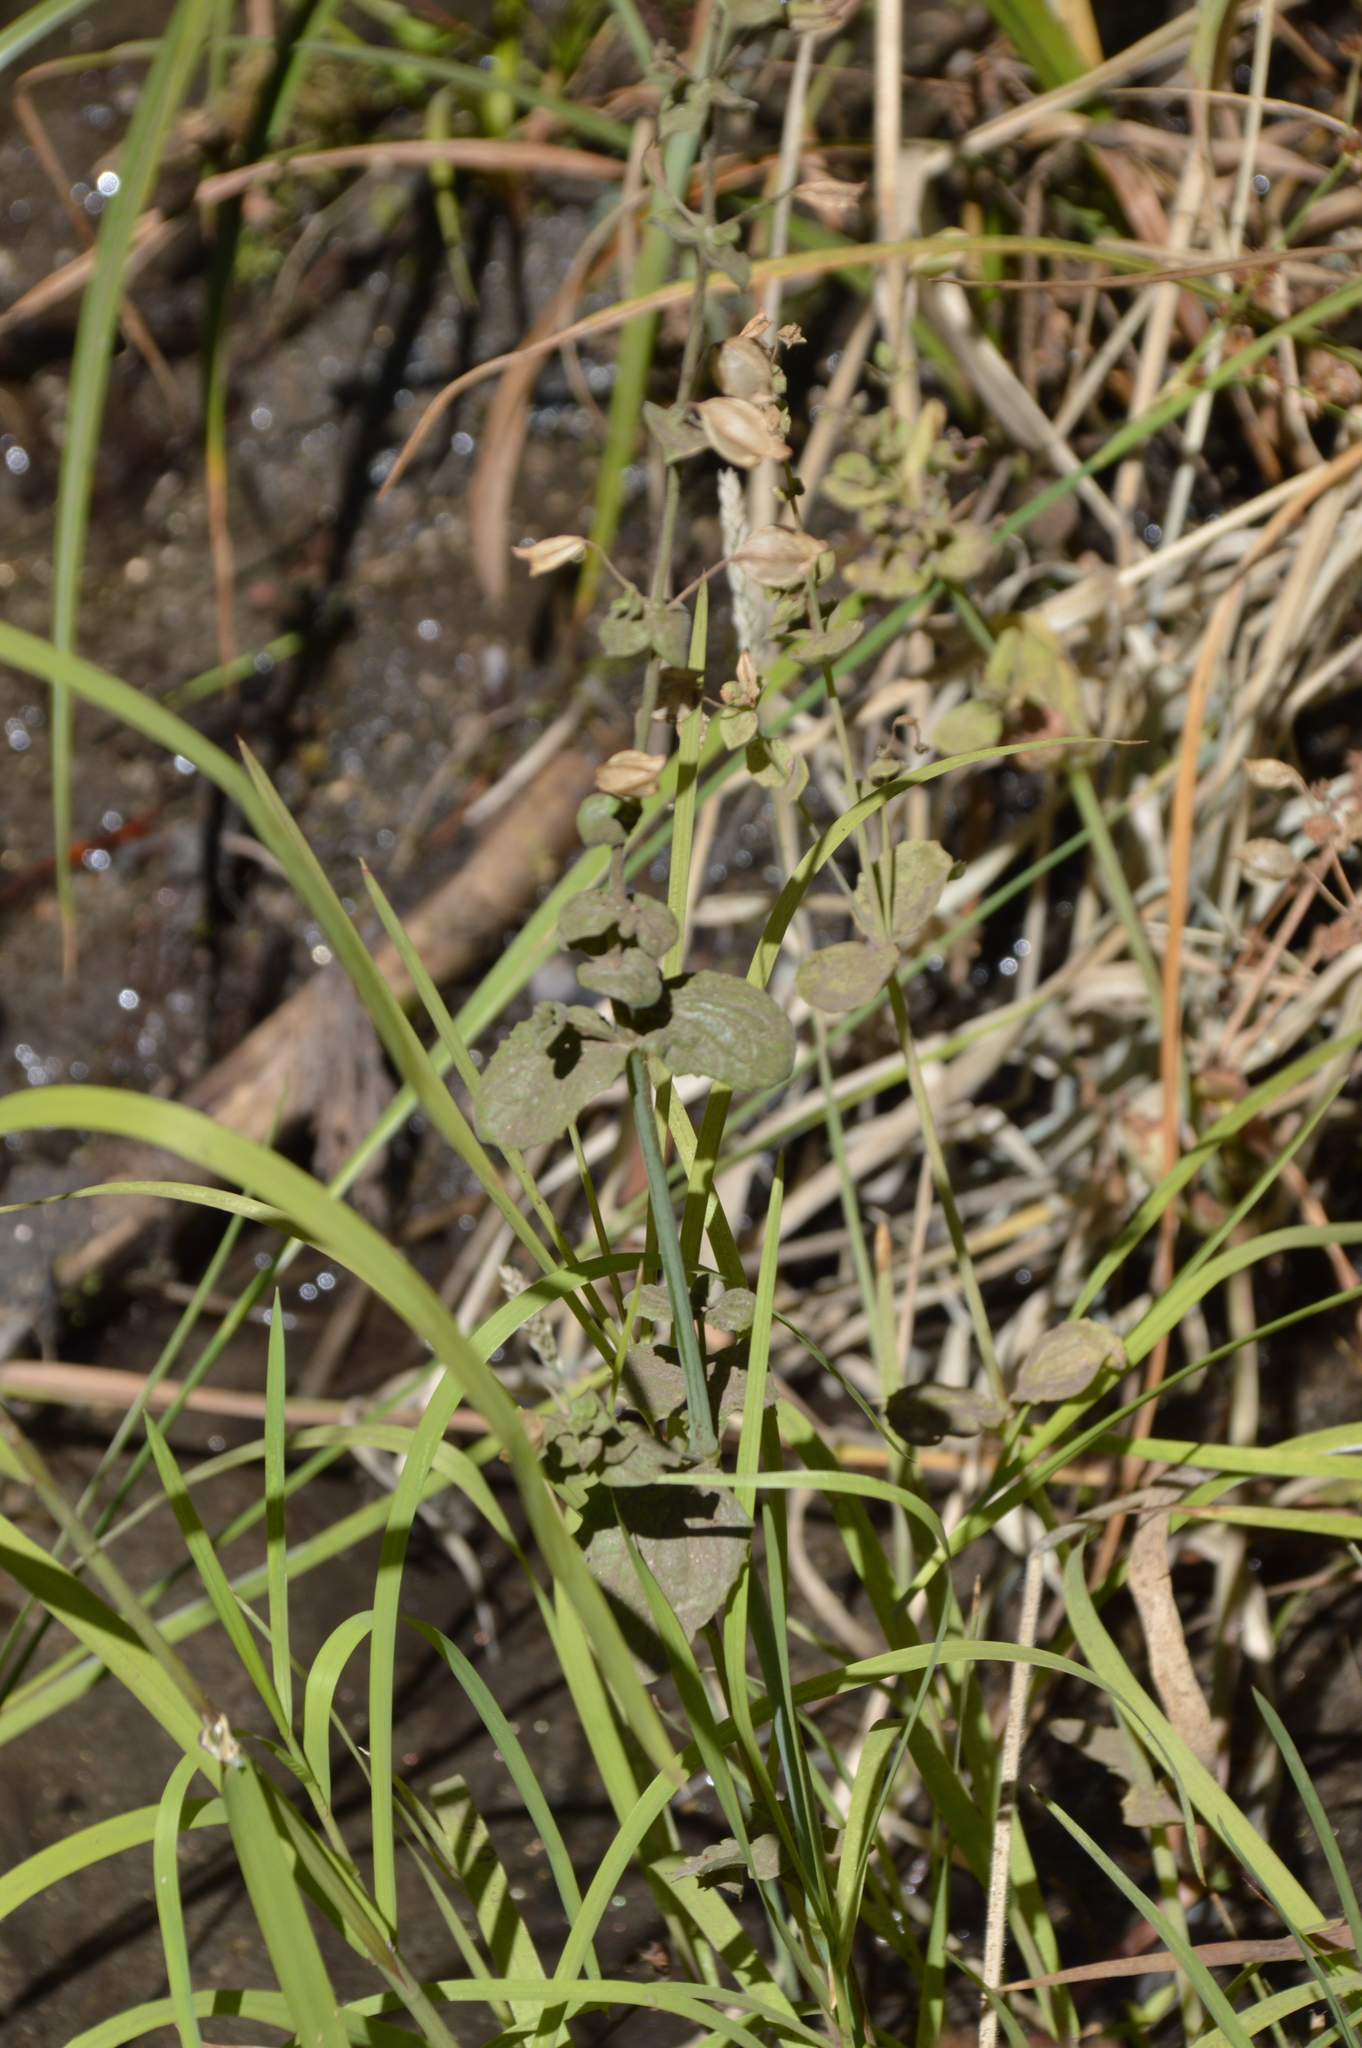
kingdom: Plantae
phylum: Tracheophyta
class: Magnoliopsida
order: Lamiales
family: Phrymaceae
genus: Erythranthe
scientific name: Erythranthe guttata
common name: Monkeyflower
